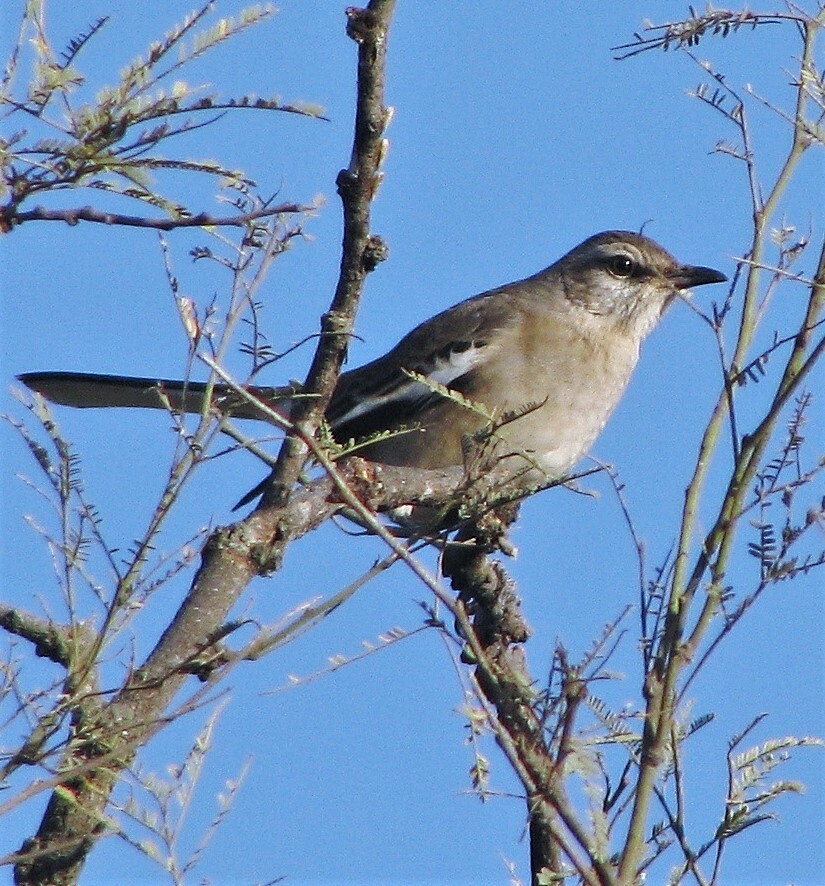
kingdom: Animalia
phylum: Chordata
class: Aves
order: Passeriformes
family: Mimidae
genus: Mimus
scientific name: Mimus triurus
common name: White-banded mockingbird
